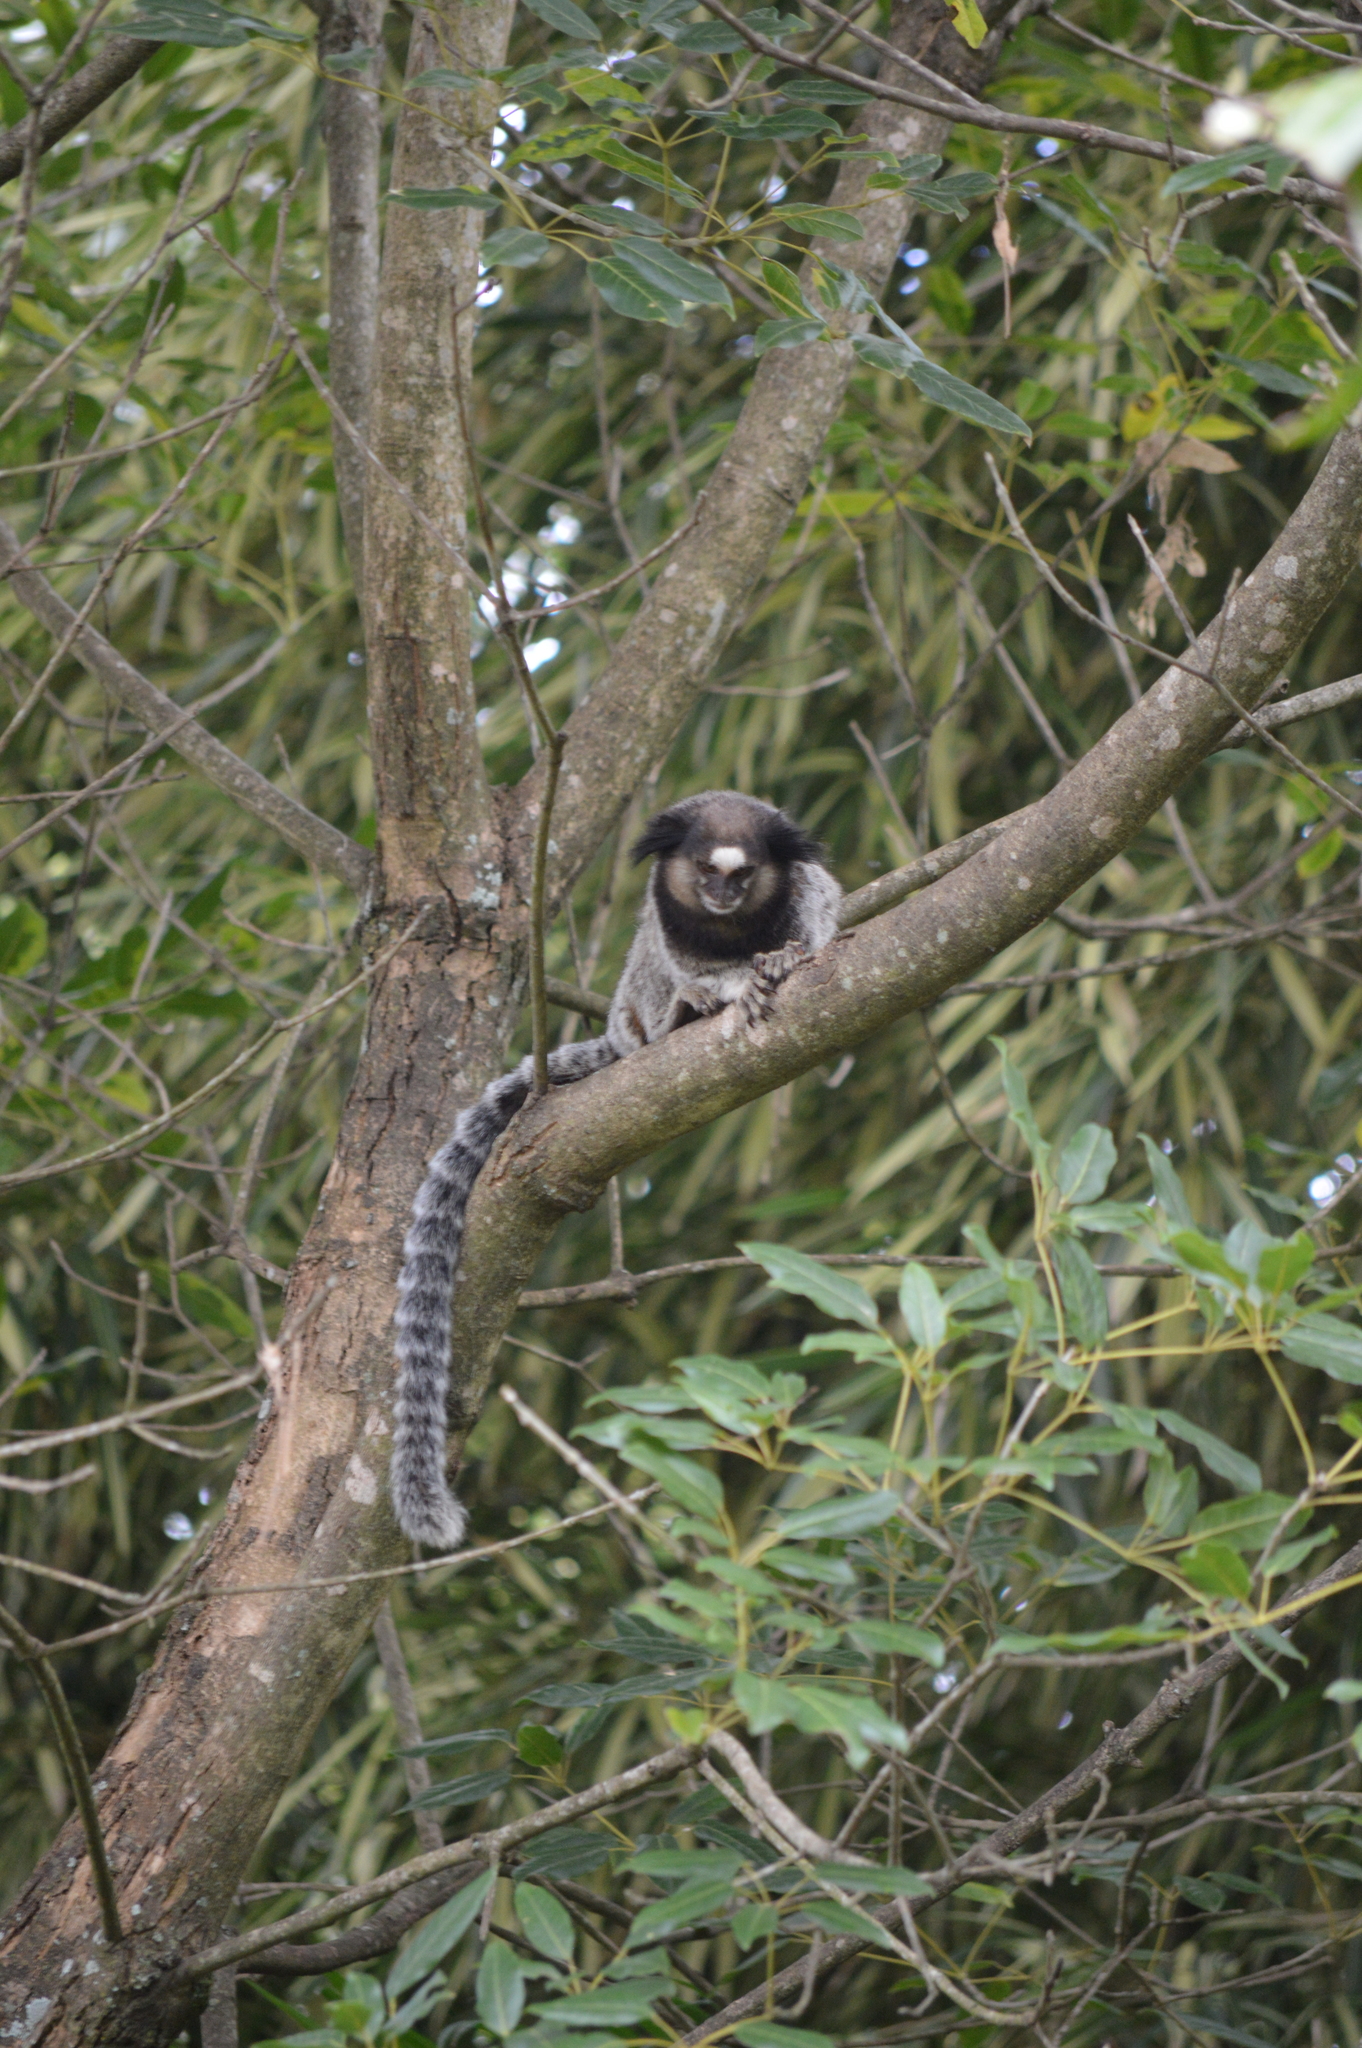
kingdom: Animalia
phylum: Chordata
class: Mammalia
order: Primates
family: Callitrichidae
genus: Callithrix
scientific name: Callithrix penicillata
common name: Black-tufted marmoset
